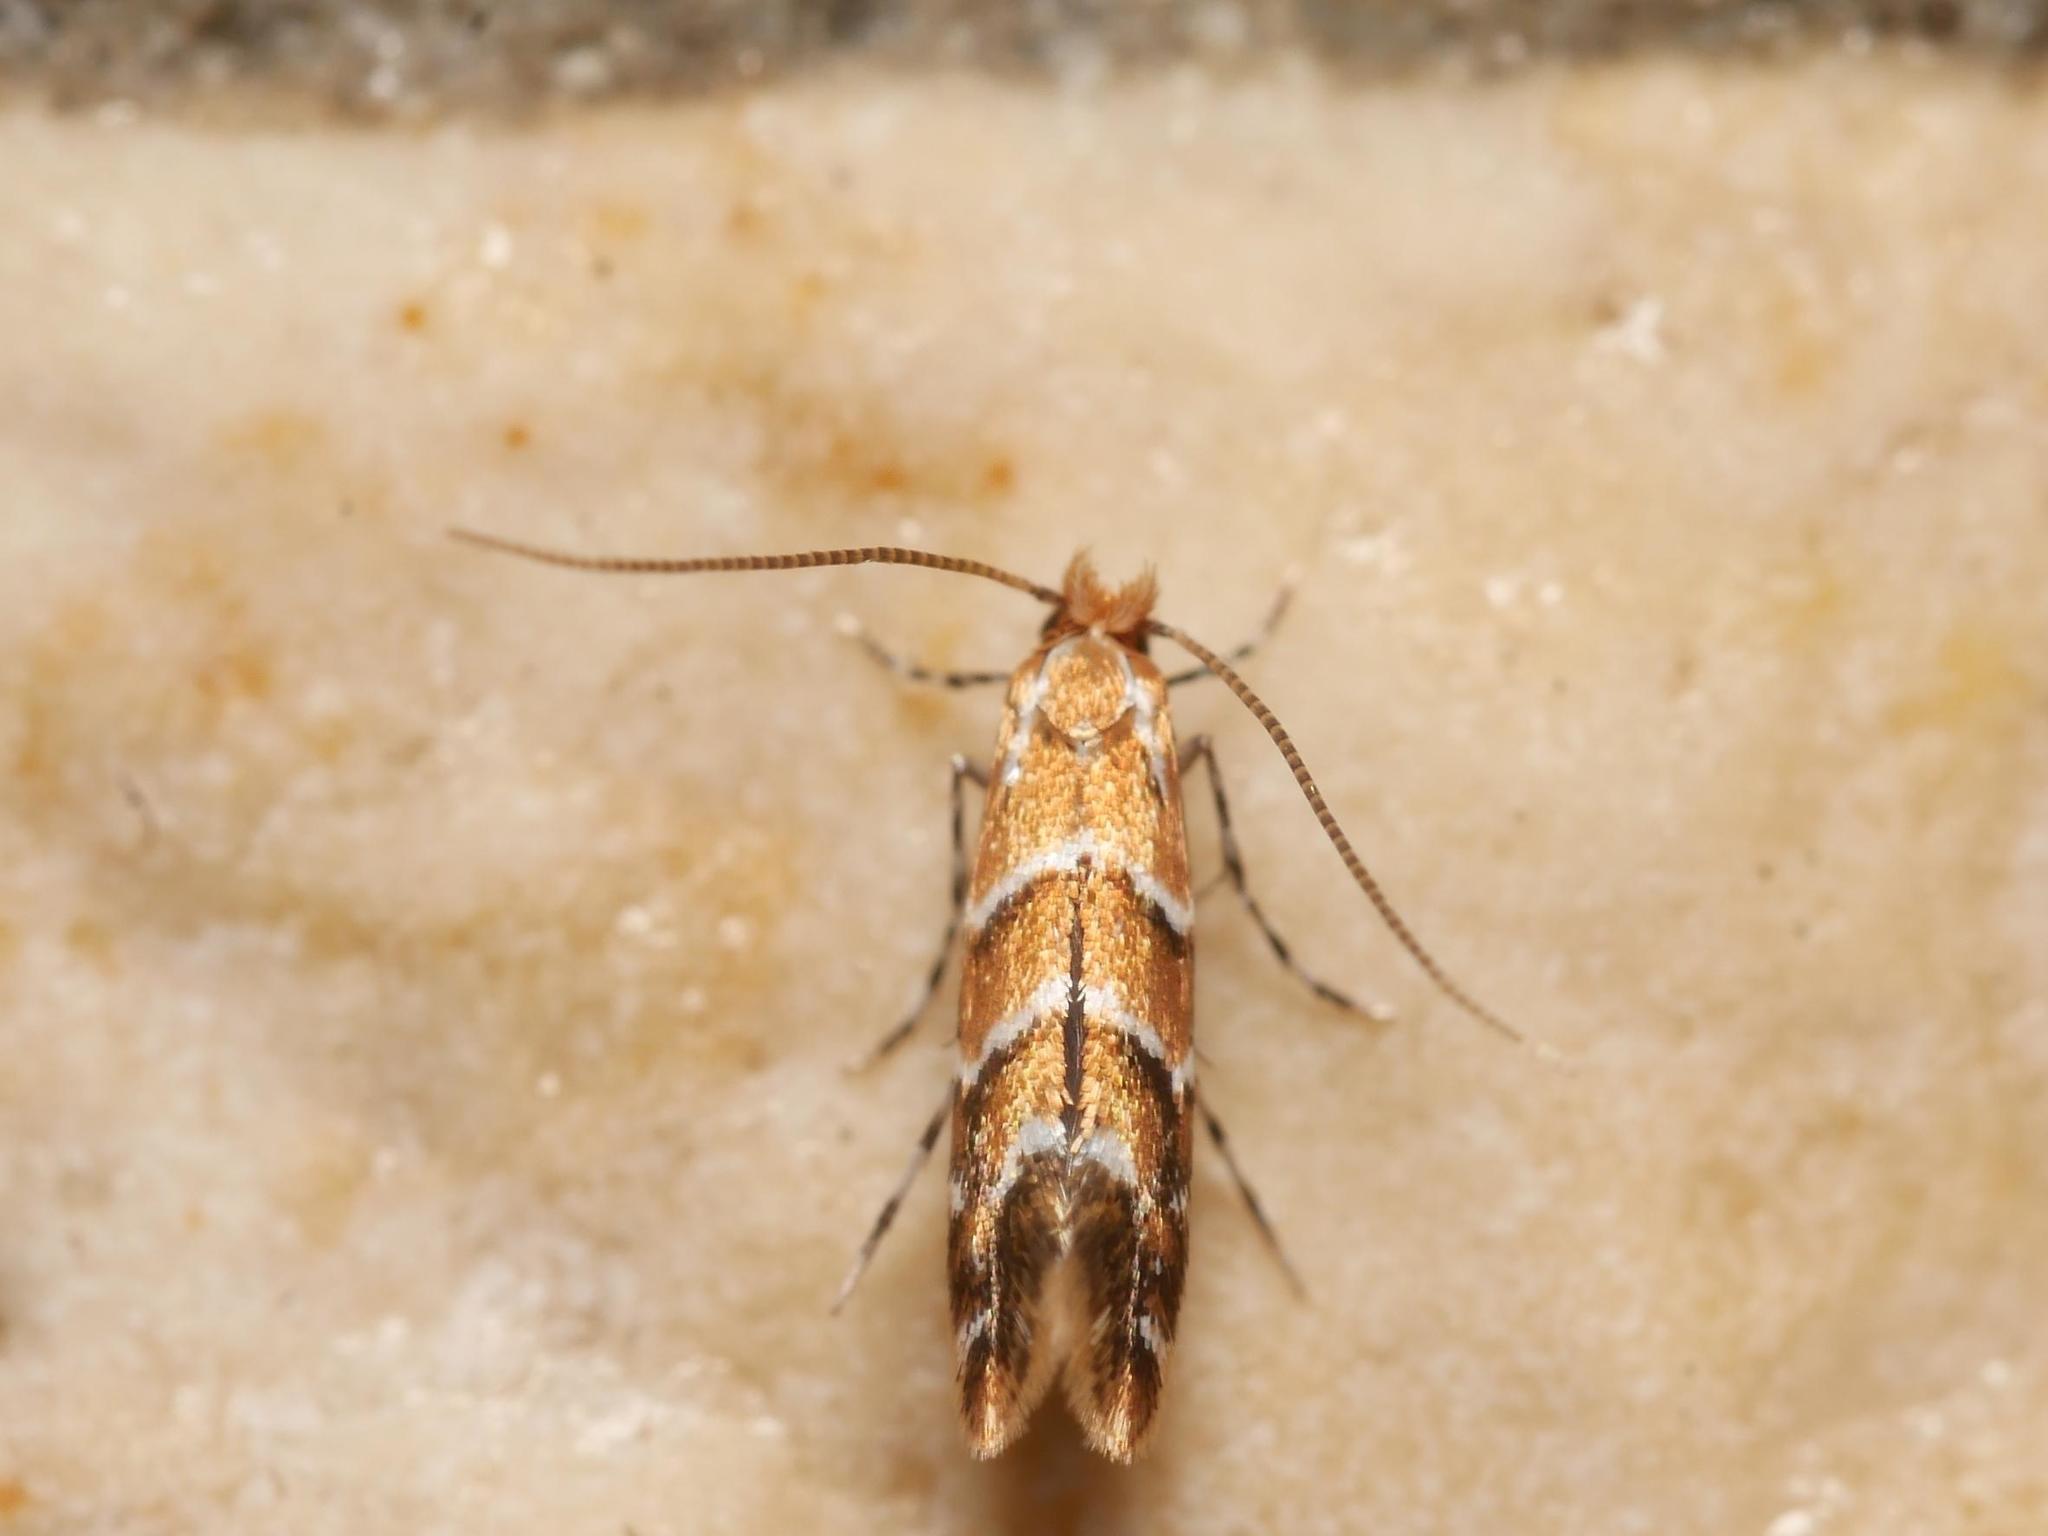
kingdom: Animalia
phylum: Arthropoda
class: Insecta
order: Lepidoptera
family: Gracillariidae
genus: Cameraria
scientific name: Cameraria ohridella
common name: Horse-chestnut leaf-miner
